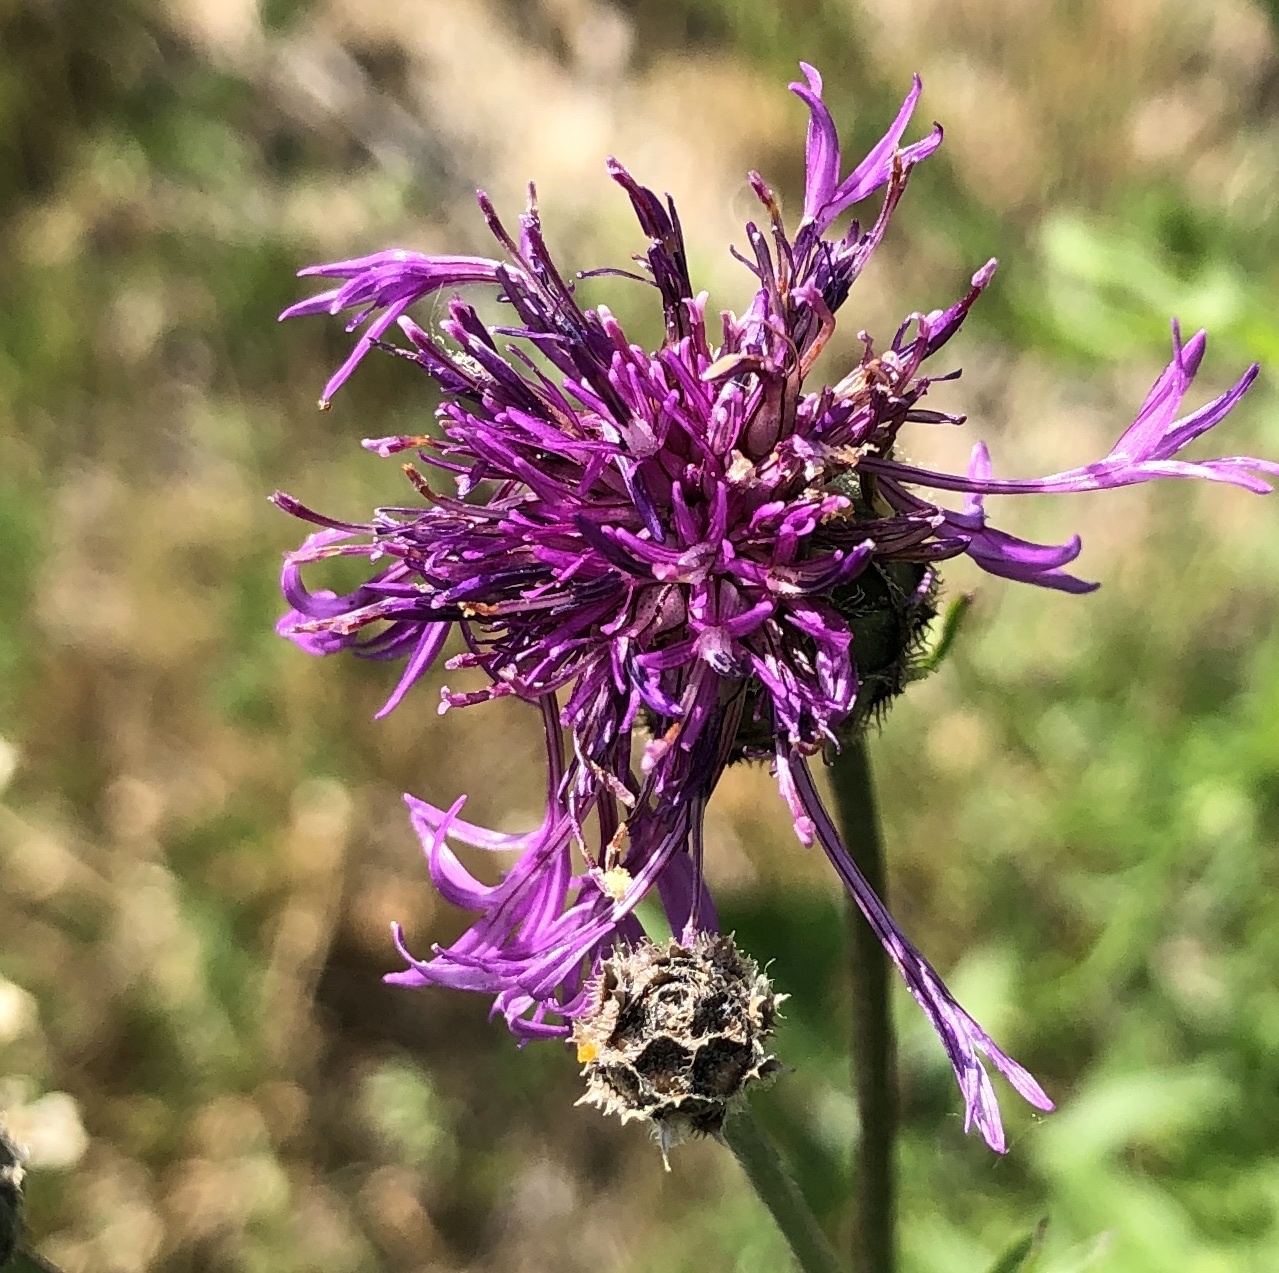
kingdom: Plantae
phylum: Tracheophyta
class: Magnoliopsida
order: Asterales
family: Asteraceae
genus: Centaurea
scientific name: Centaurea scabiosa
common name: Greater knapweed
